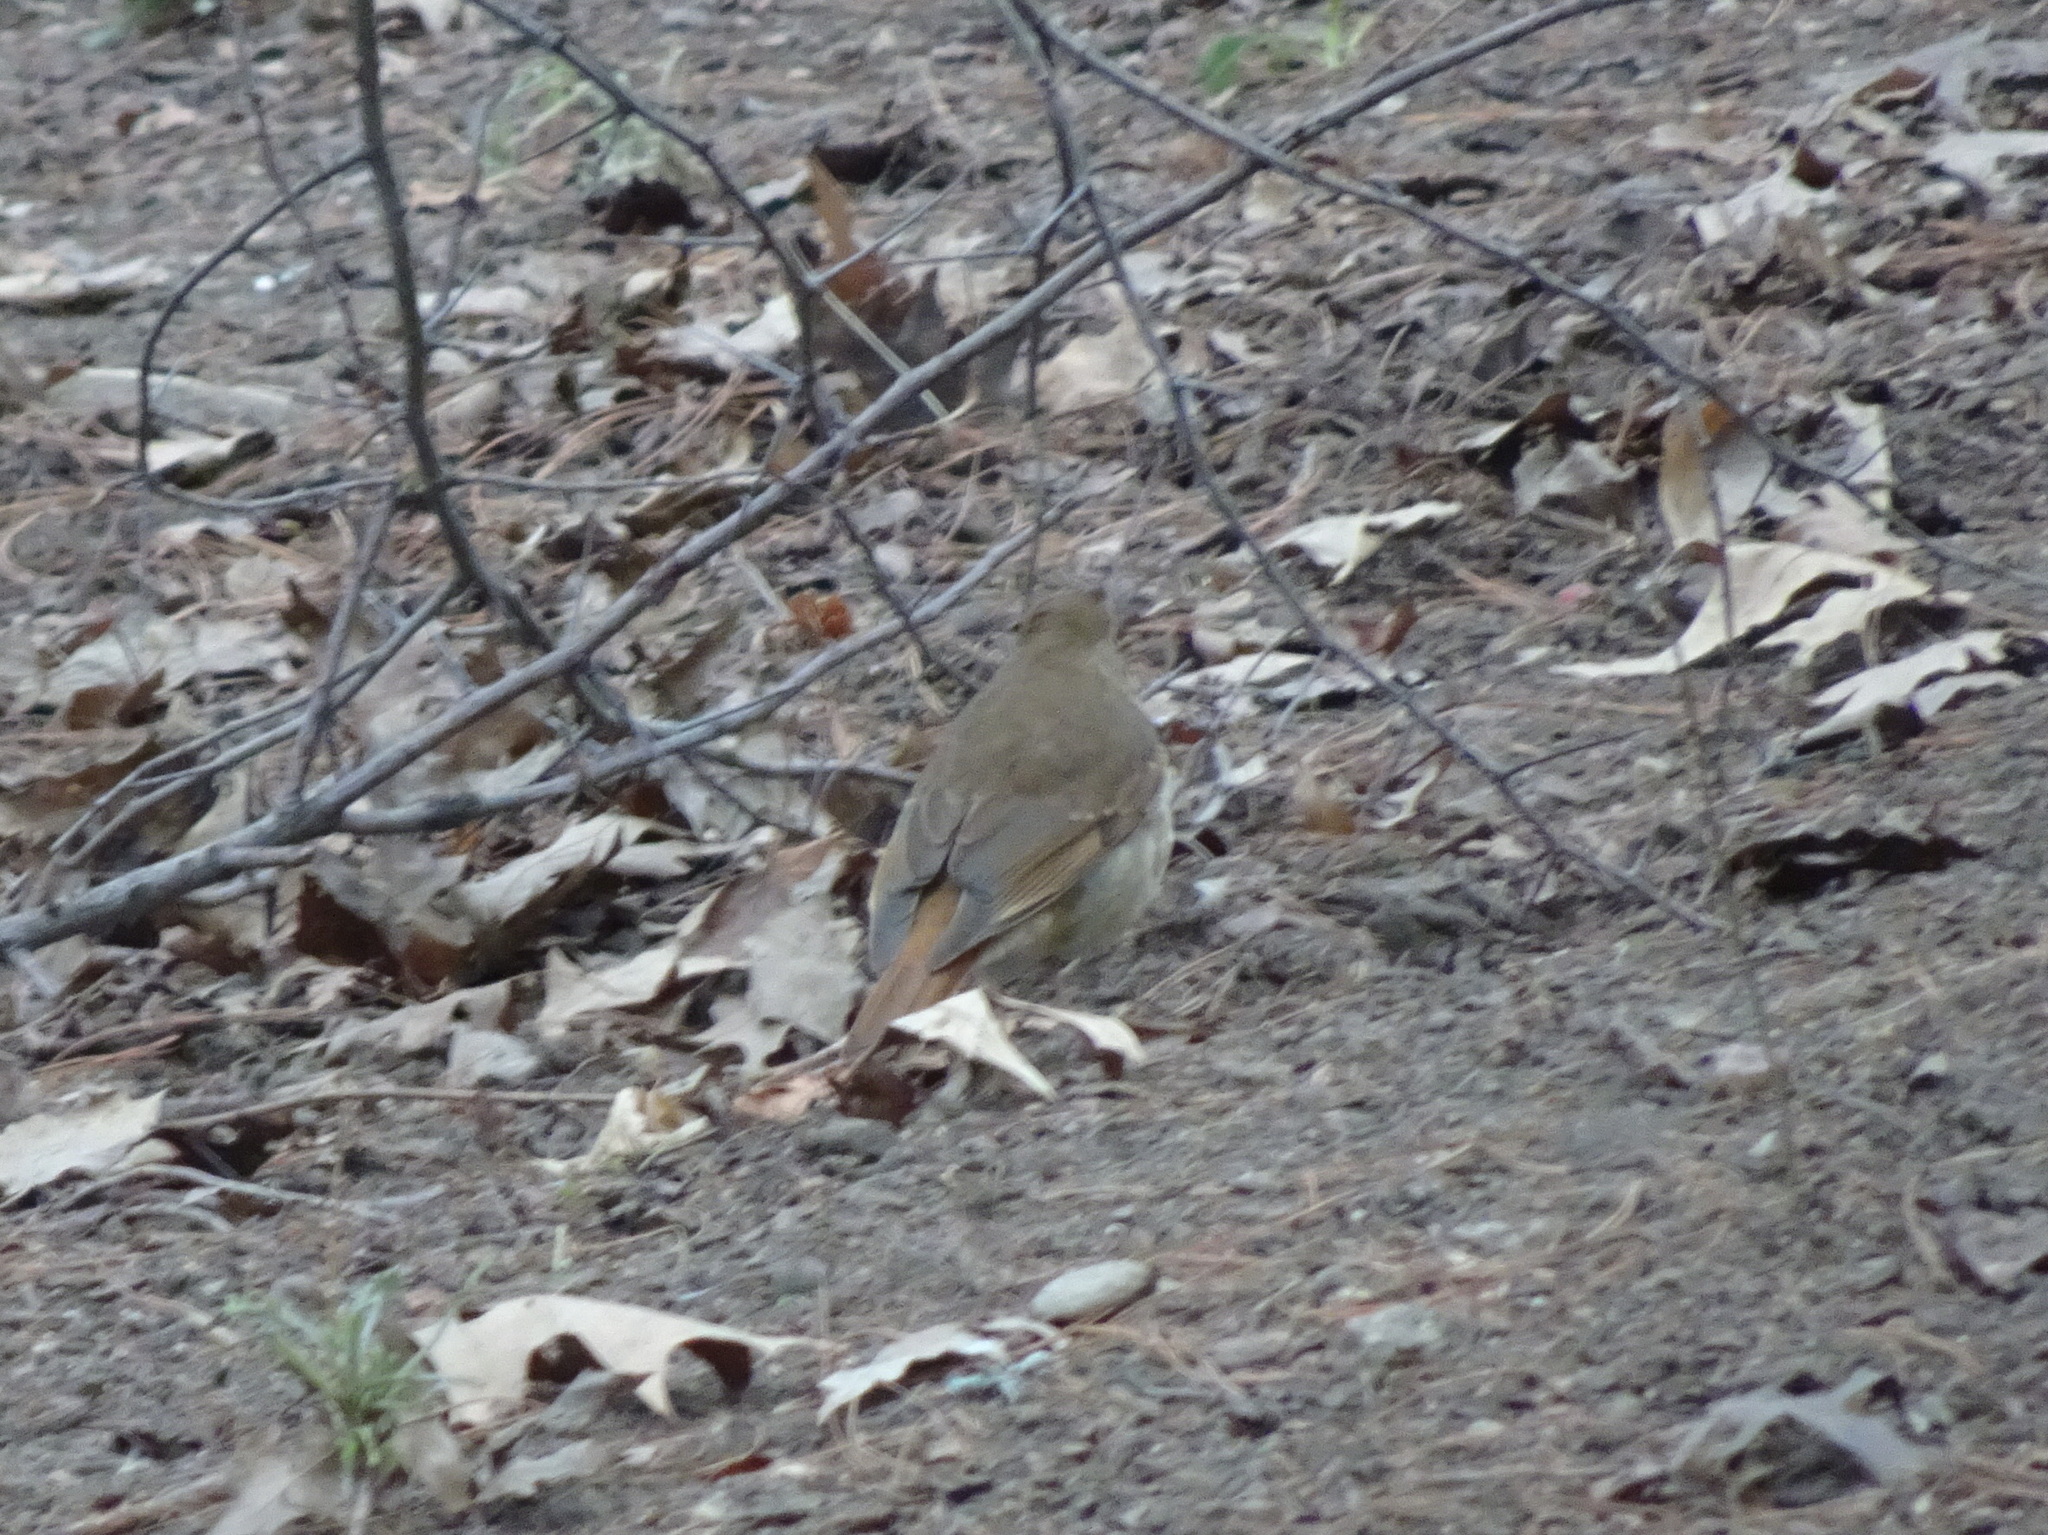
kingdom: Animalia
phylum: Chordata
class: Aves
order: Passeriformes
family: Turdidae
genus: Catharus
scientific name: Catharus guttatus
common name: Hermit thrush
